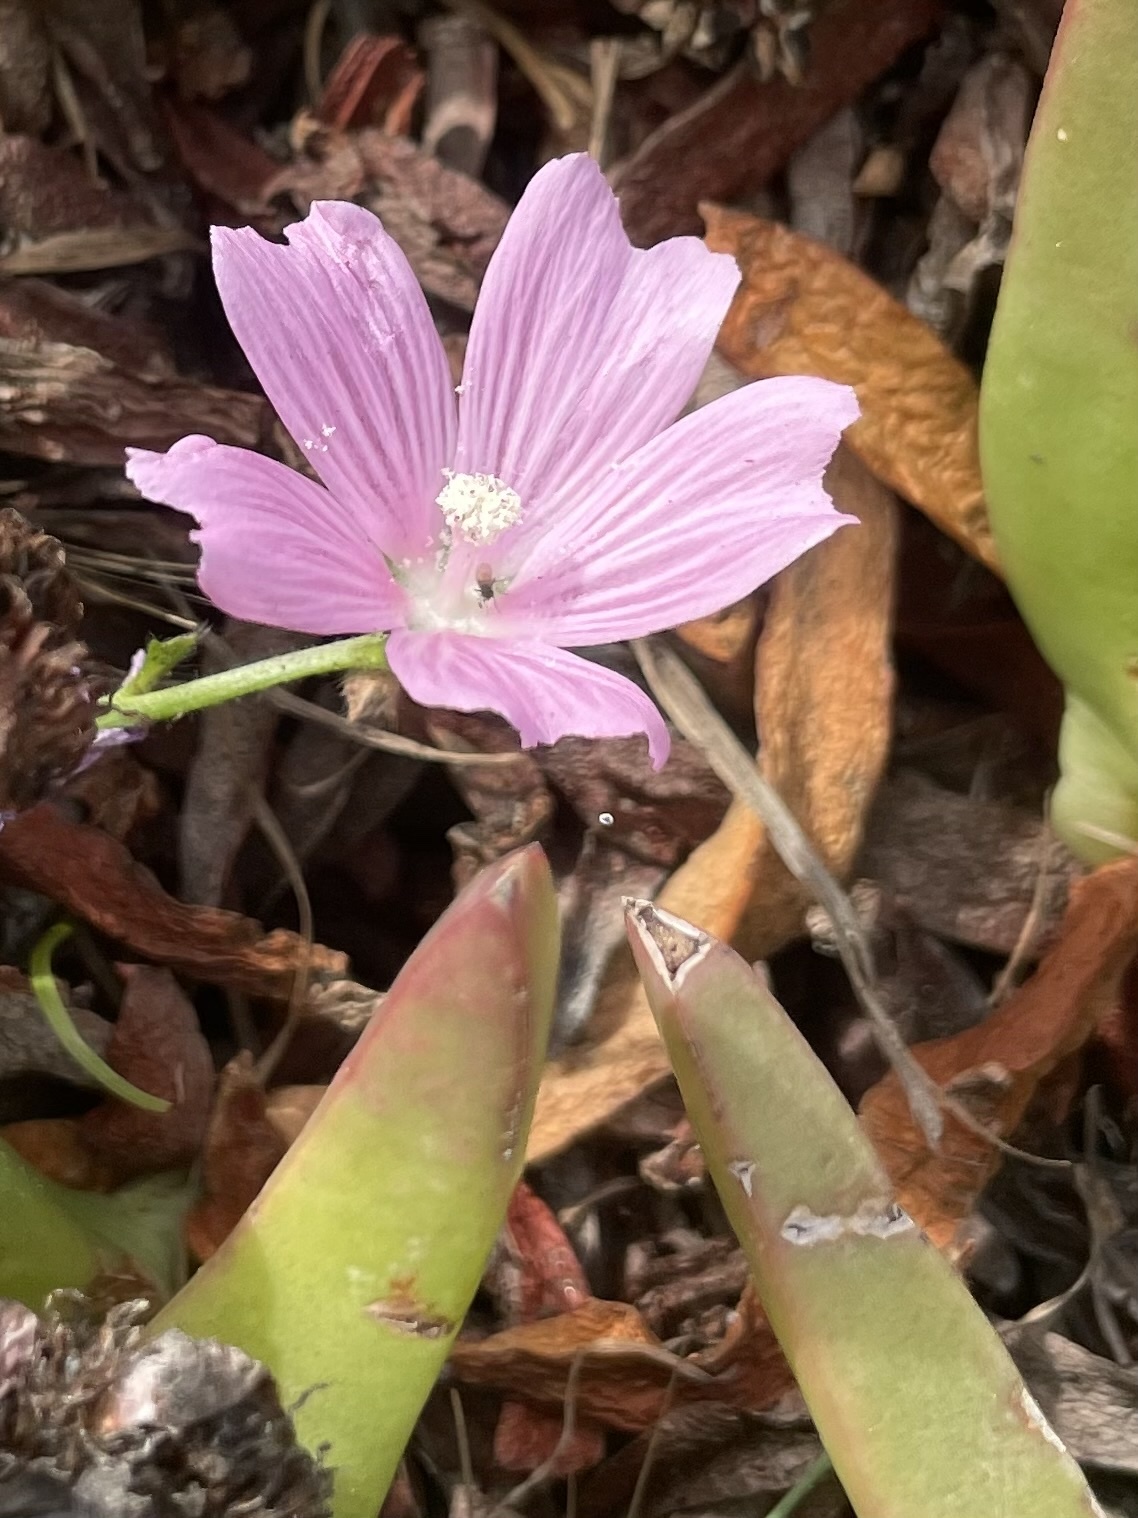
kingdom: Plantae
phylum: Tracheophyta
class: Magnoliopsida
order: Malvales
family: Malvaceae
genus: Sidalcea
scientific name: Sidalcea malviflora
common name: Greek mallow
